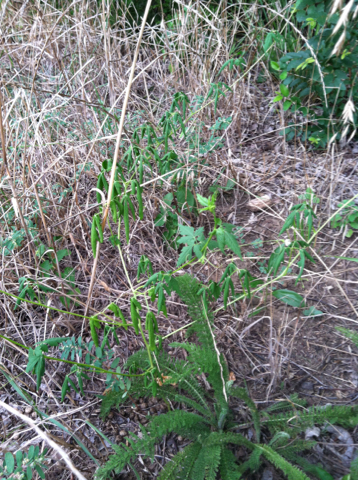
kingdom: Plantae
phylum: Tracheophyta
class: Magnoliopsida
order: Sapindales
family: Sapindaceae
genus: Cardiospermum
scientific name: Cardiospermum halicacabum
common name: Balloon vine
